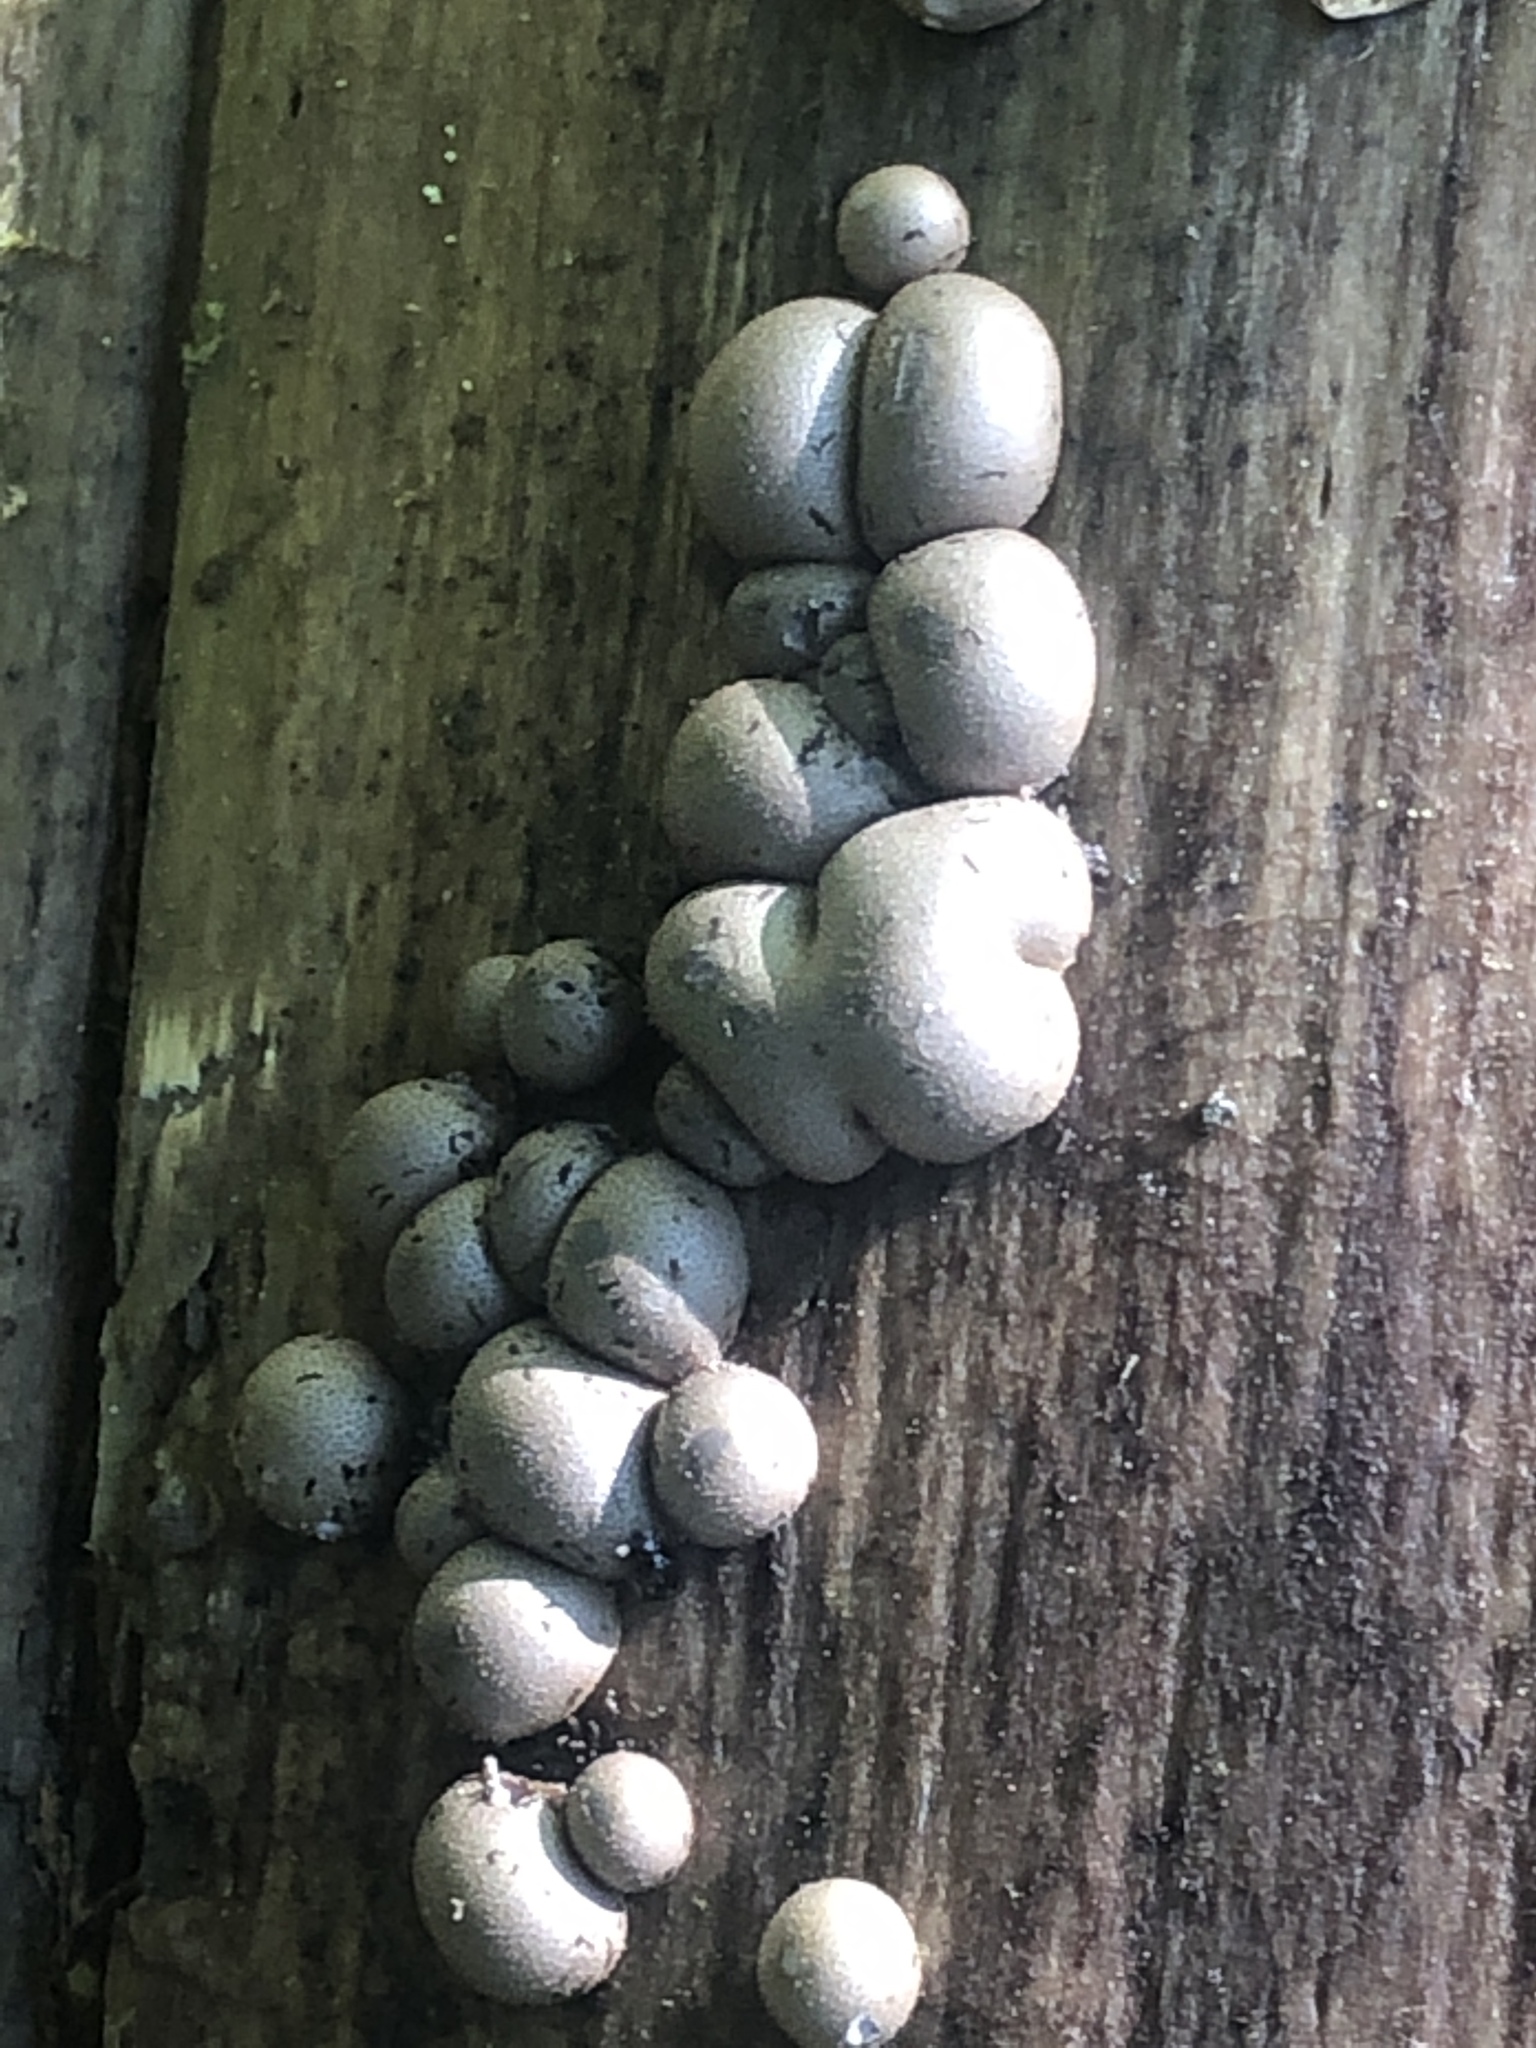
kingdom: Protozoa
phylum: Mycetozoa
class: Myxomycetes
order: Cribrariales
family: Tubiferaceae
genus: Lycogala
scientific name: Lycogala epidendrum
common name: Wolf's milk
